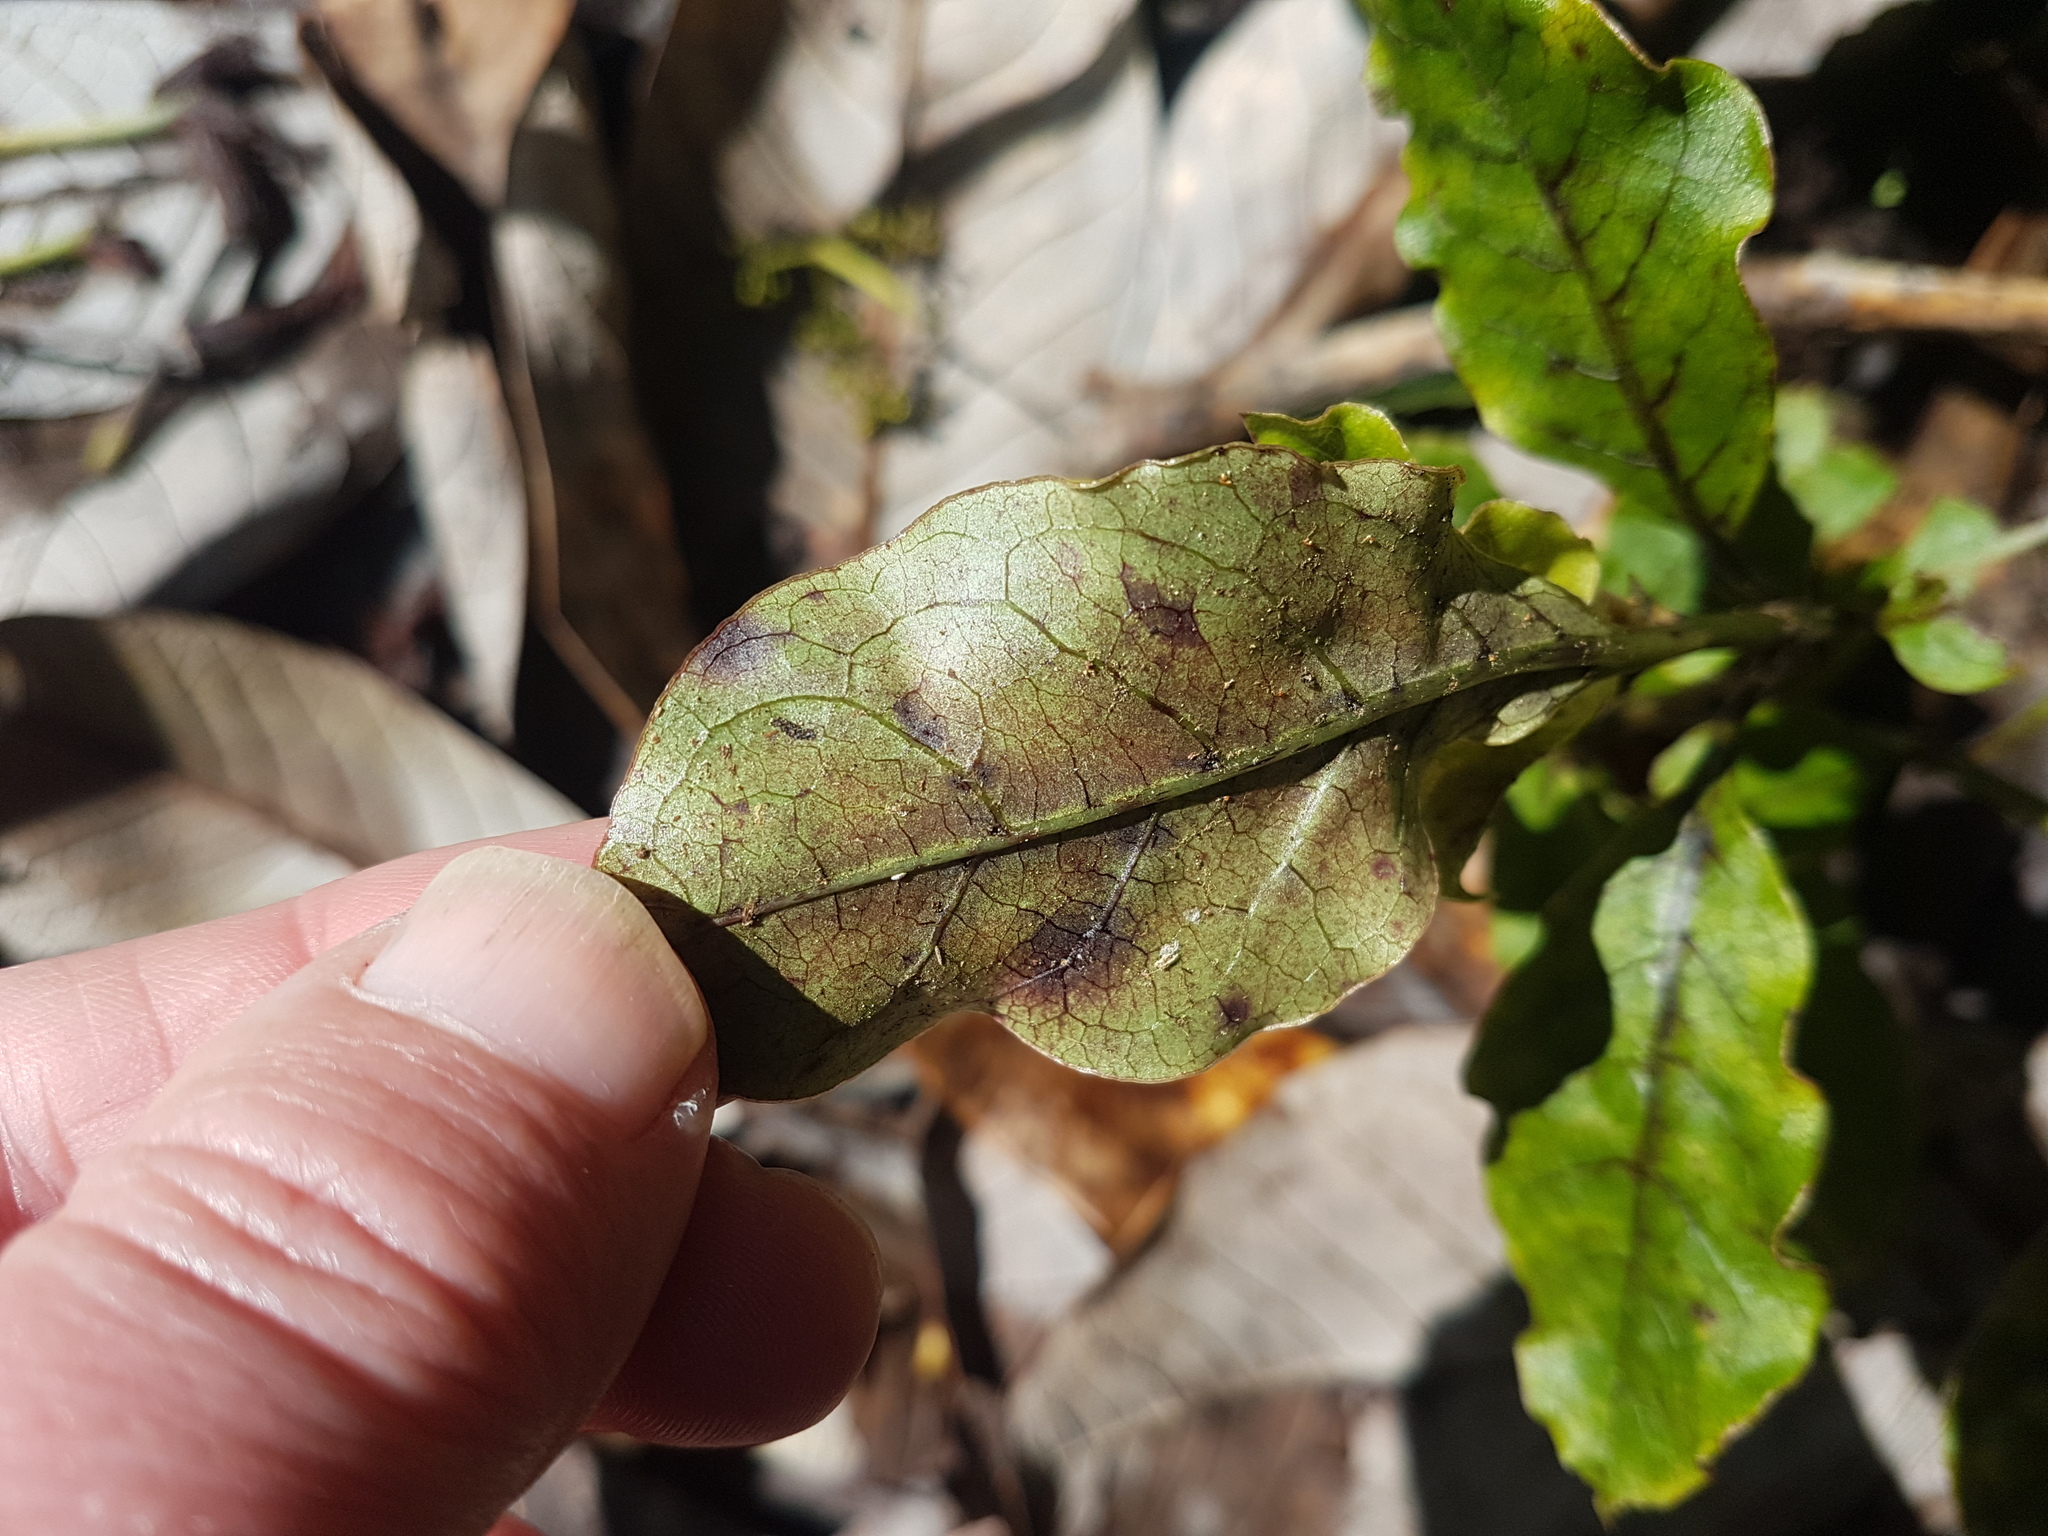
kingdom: Plantae
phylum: Tracheophyta
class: Magnoliopsida
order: Gentianales
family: Rubiaceae
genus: Coprosma
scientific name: Coprosma tenuifolia
